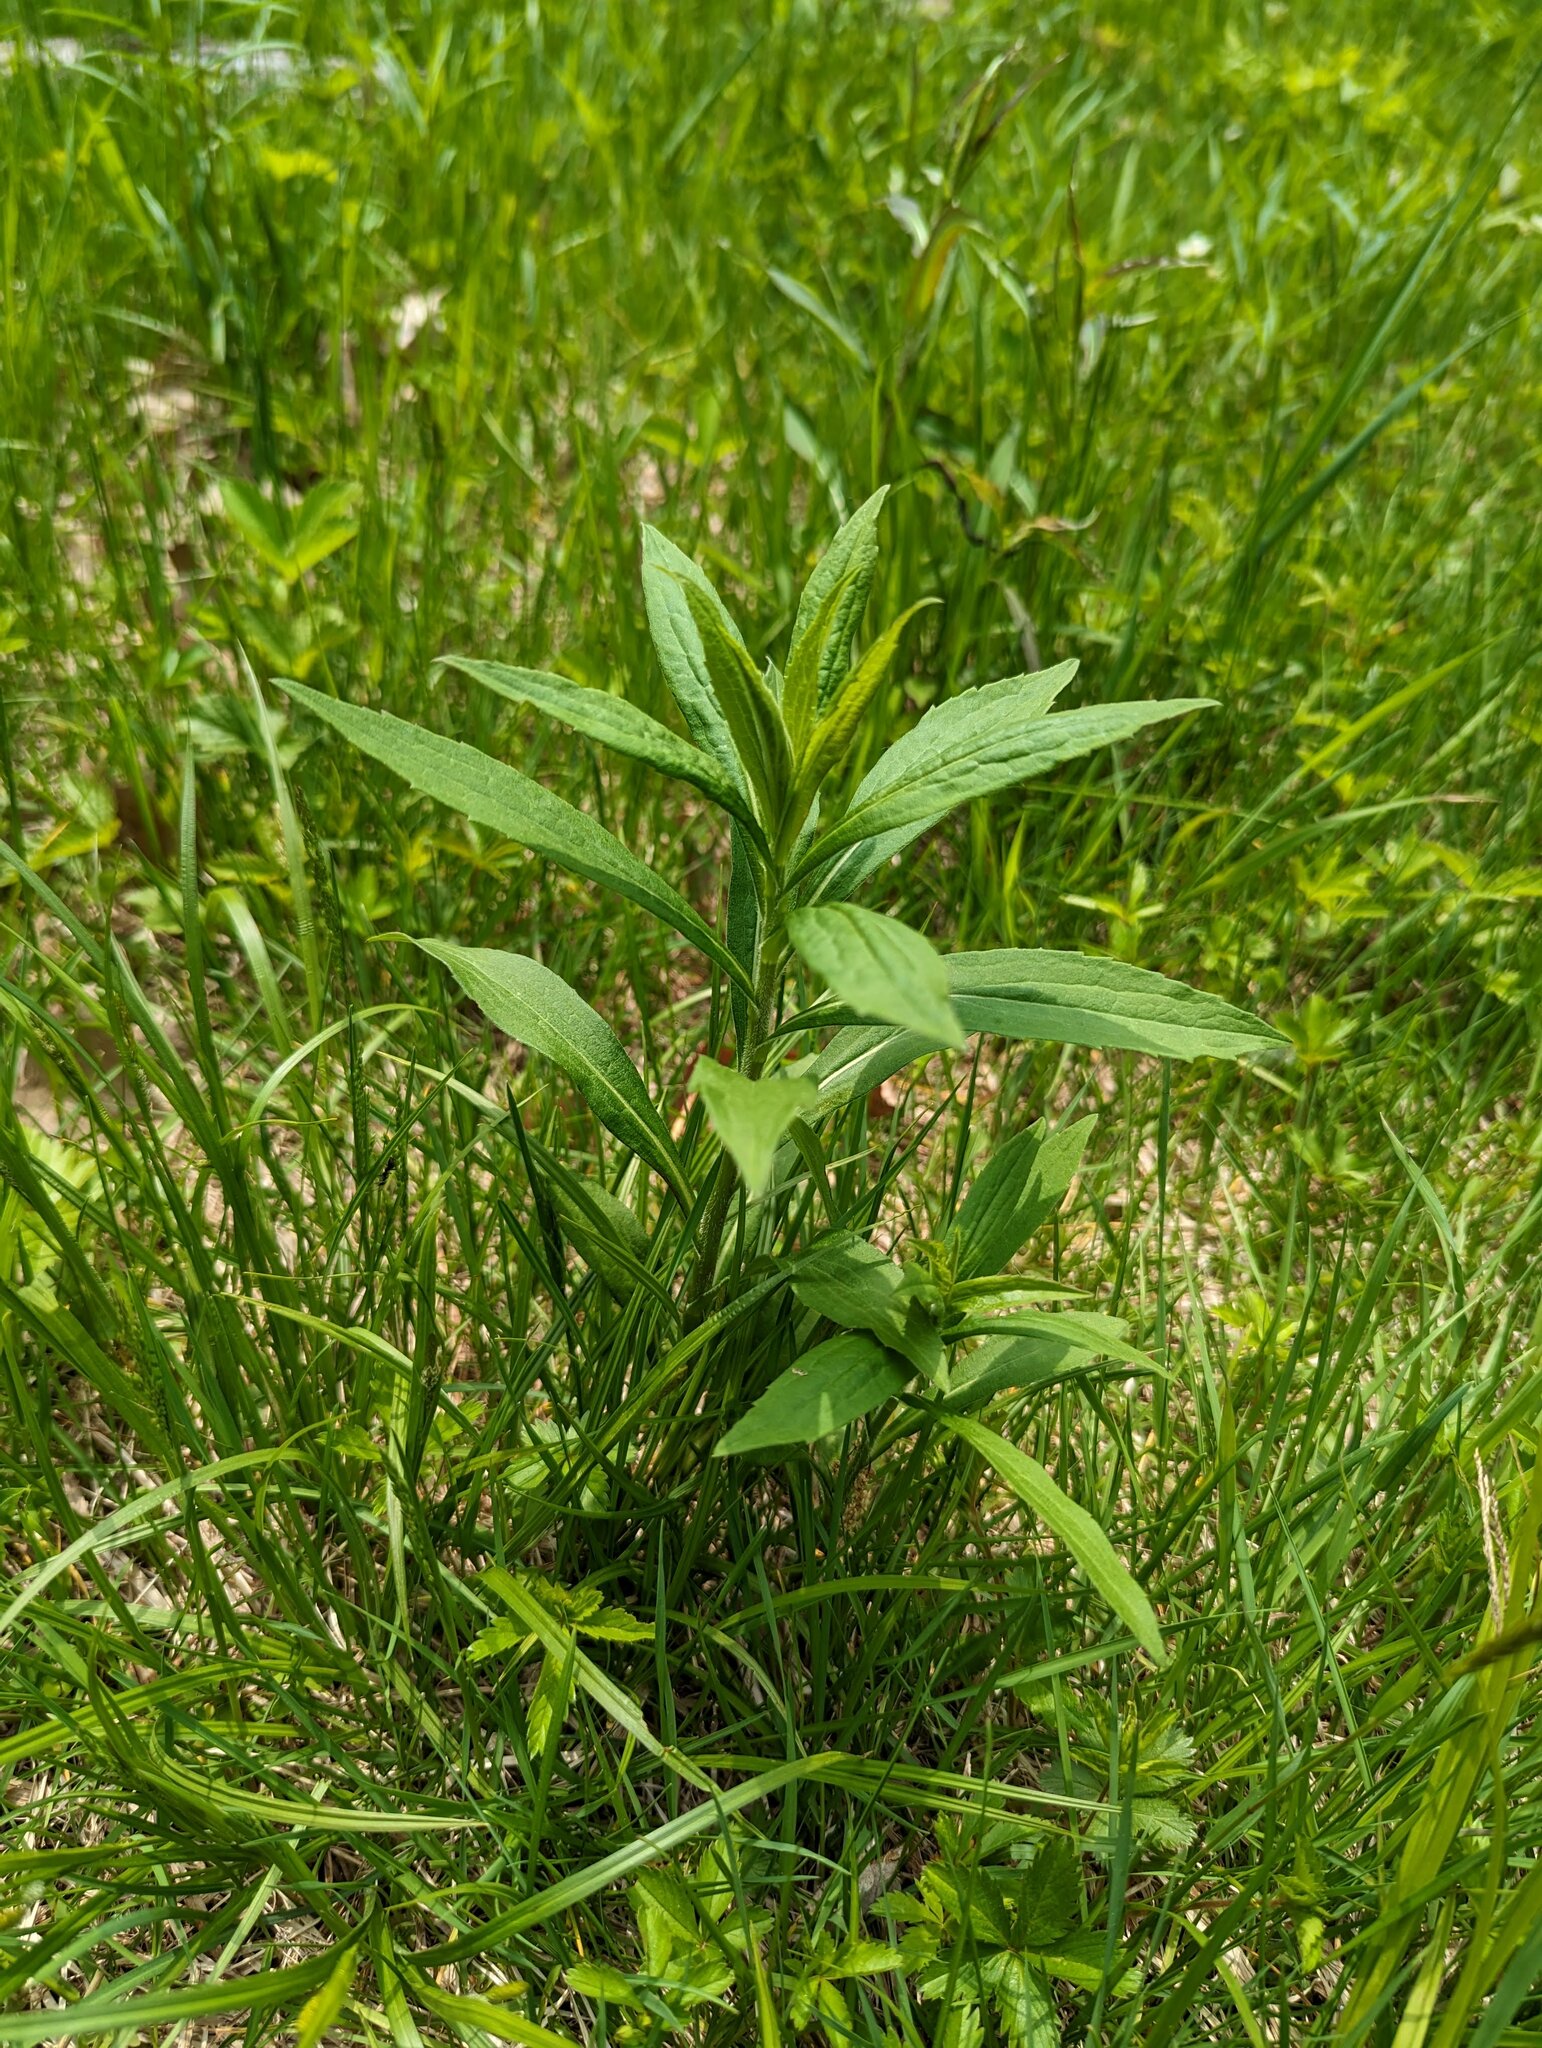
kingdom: Plantae
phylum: Tracheophyta
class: Magnoliopsida
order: Asterales
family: Asteraceae
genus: Solidago
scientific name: Solidago rugosa
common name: Rough-stemmed goldenrod
